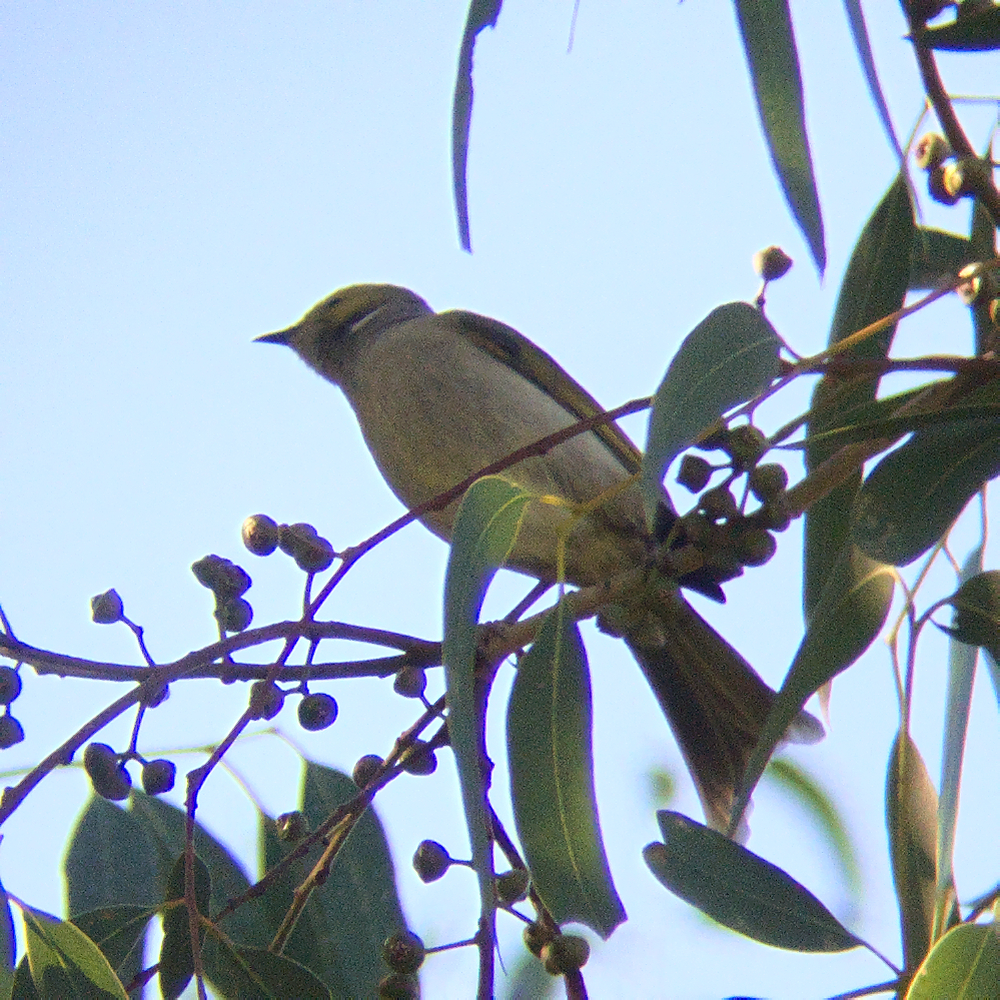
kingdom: Animalia
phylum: Chordata
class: Aves
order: Passeriformes
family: Meliphagidae
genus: Ptilotula
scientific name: Ptilotula penicillata
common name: White-plumed honeyeater
